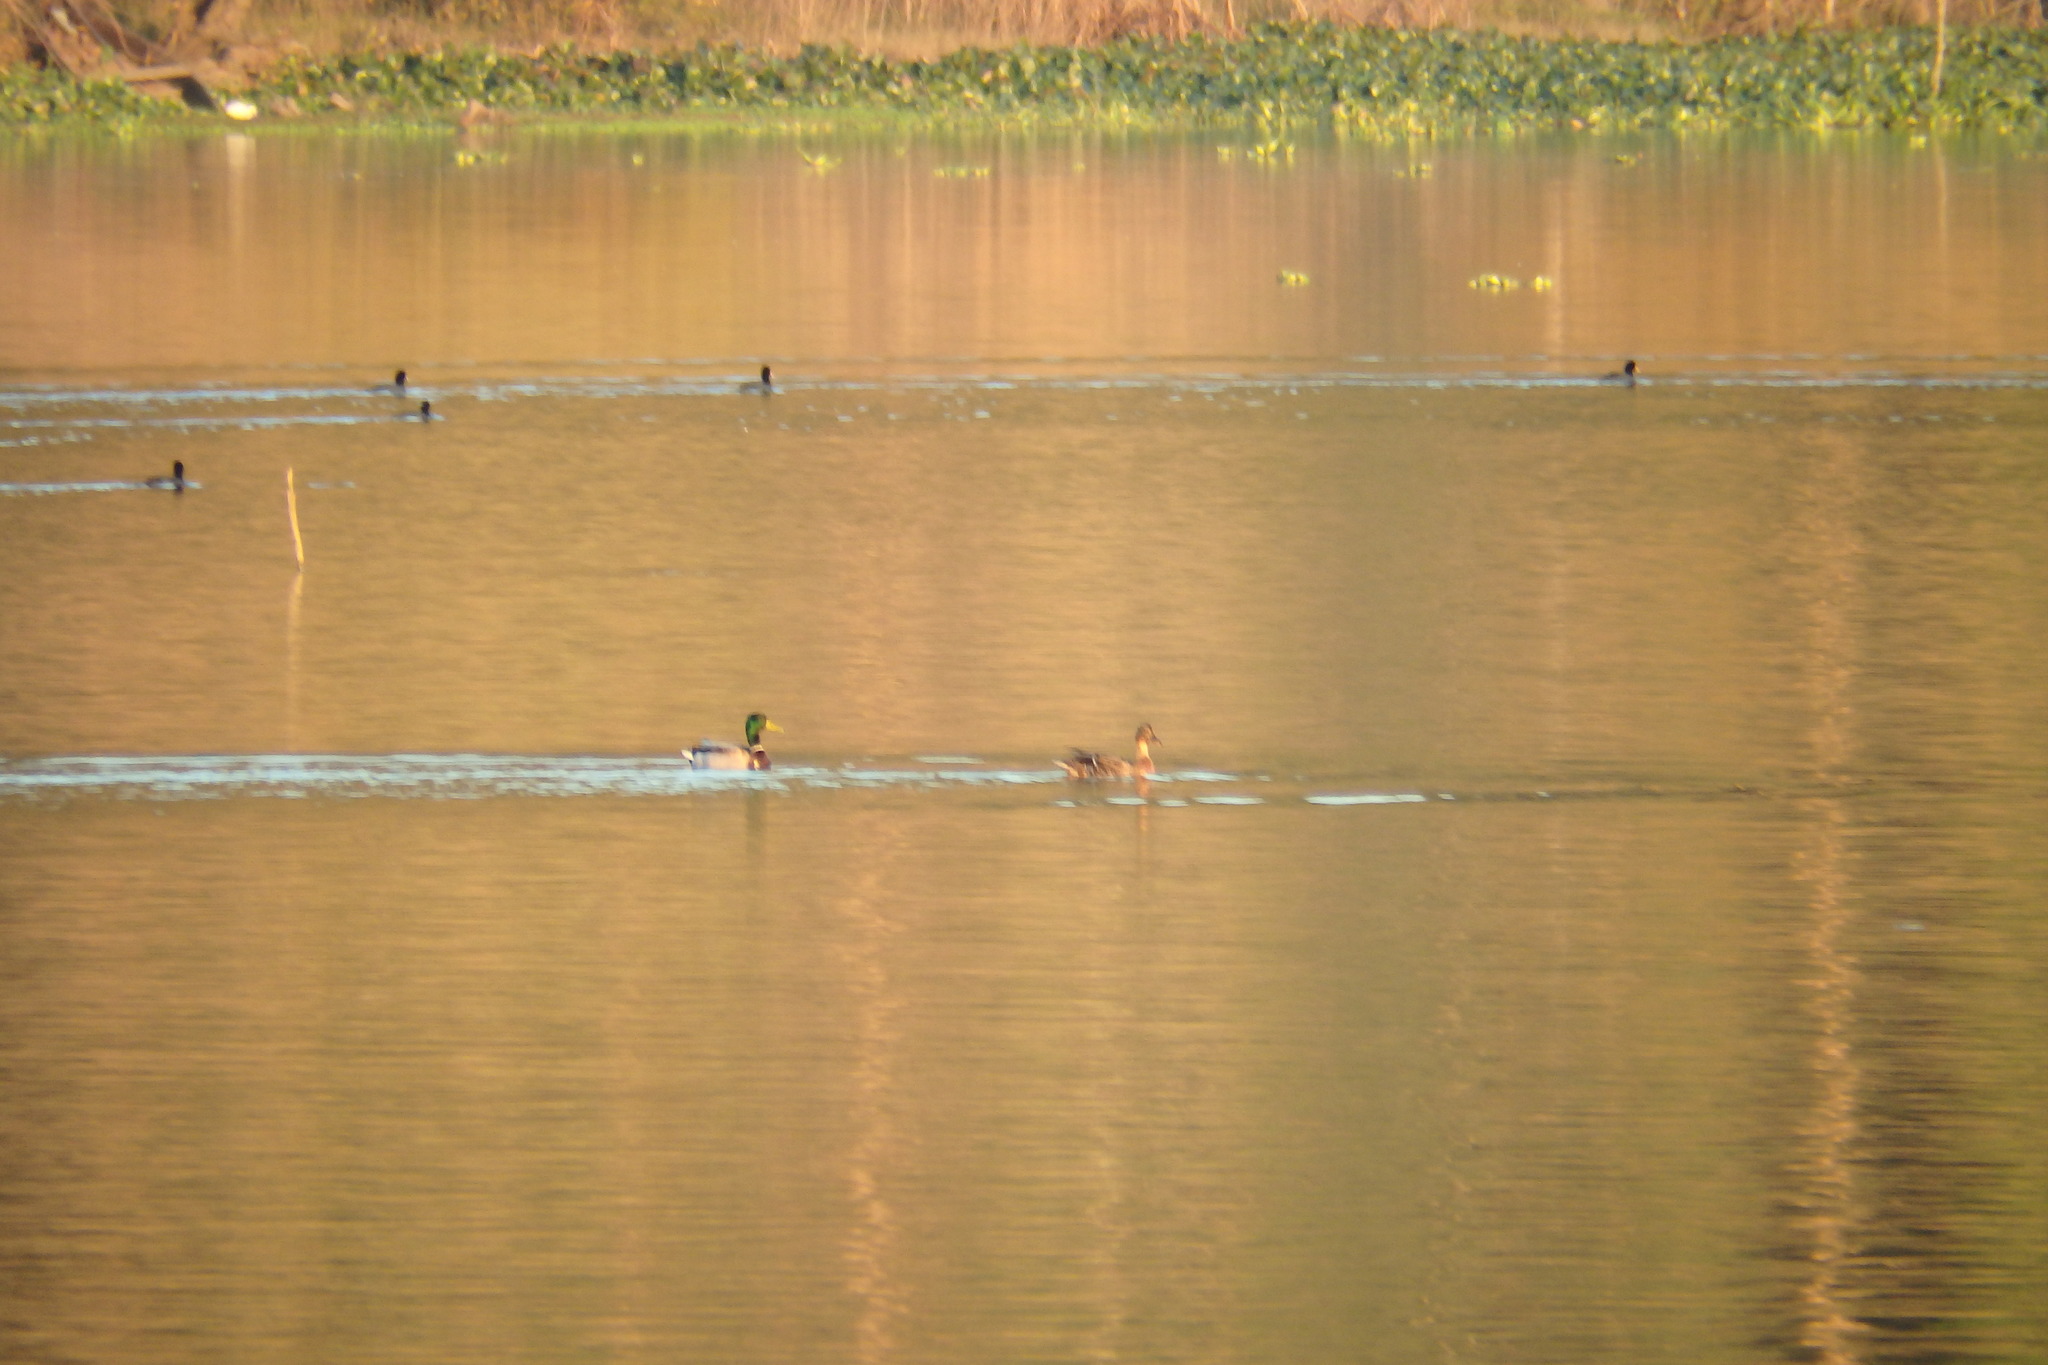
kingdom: Animalia
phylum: Chordata
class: Aves
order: Anseriformes
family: Anatidae
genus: Anas
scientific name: Anas platyrhynchos
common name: Mallard
